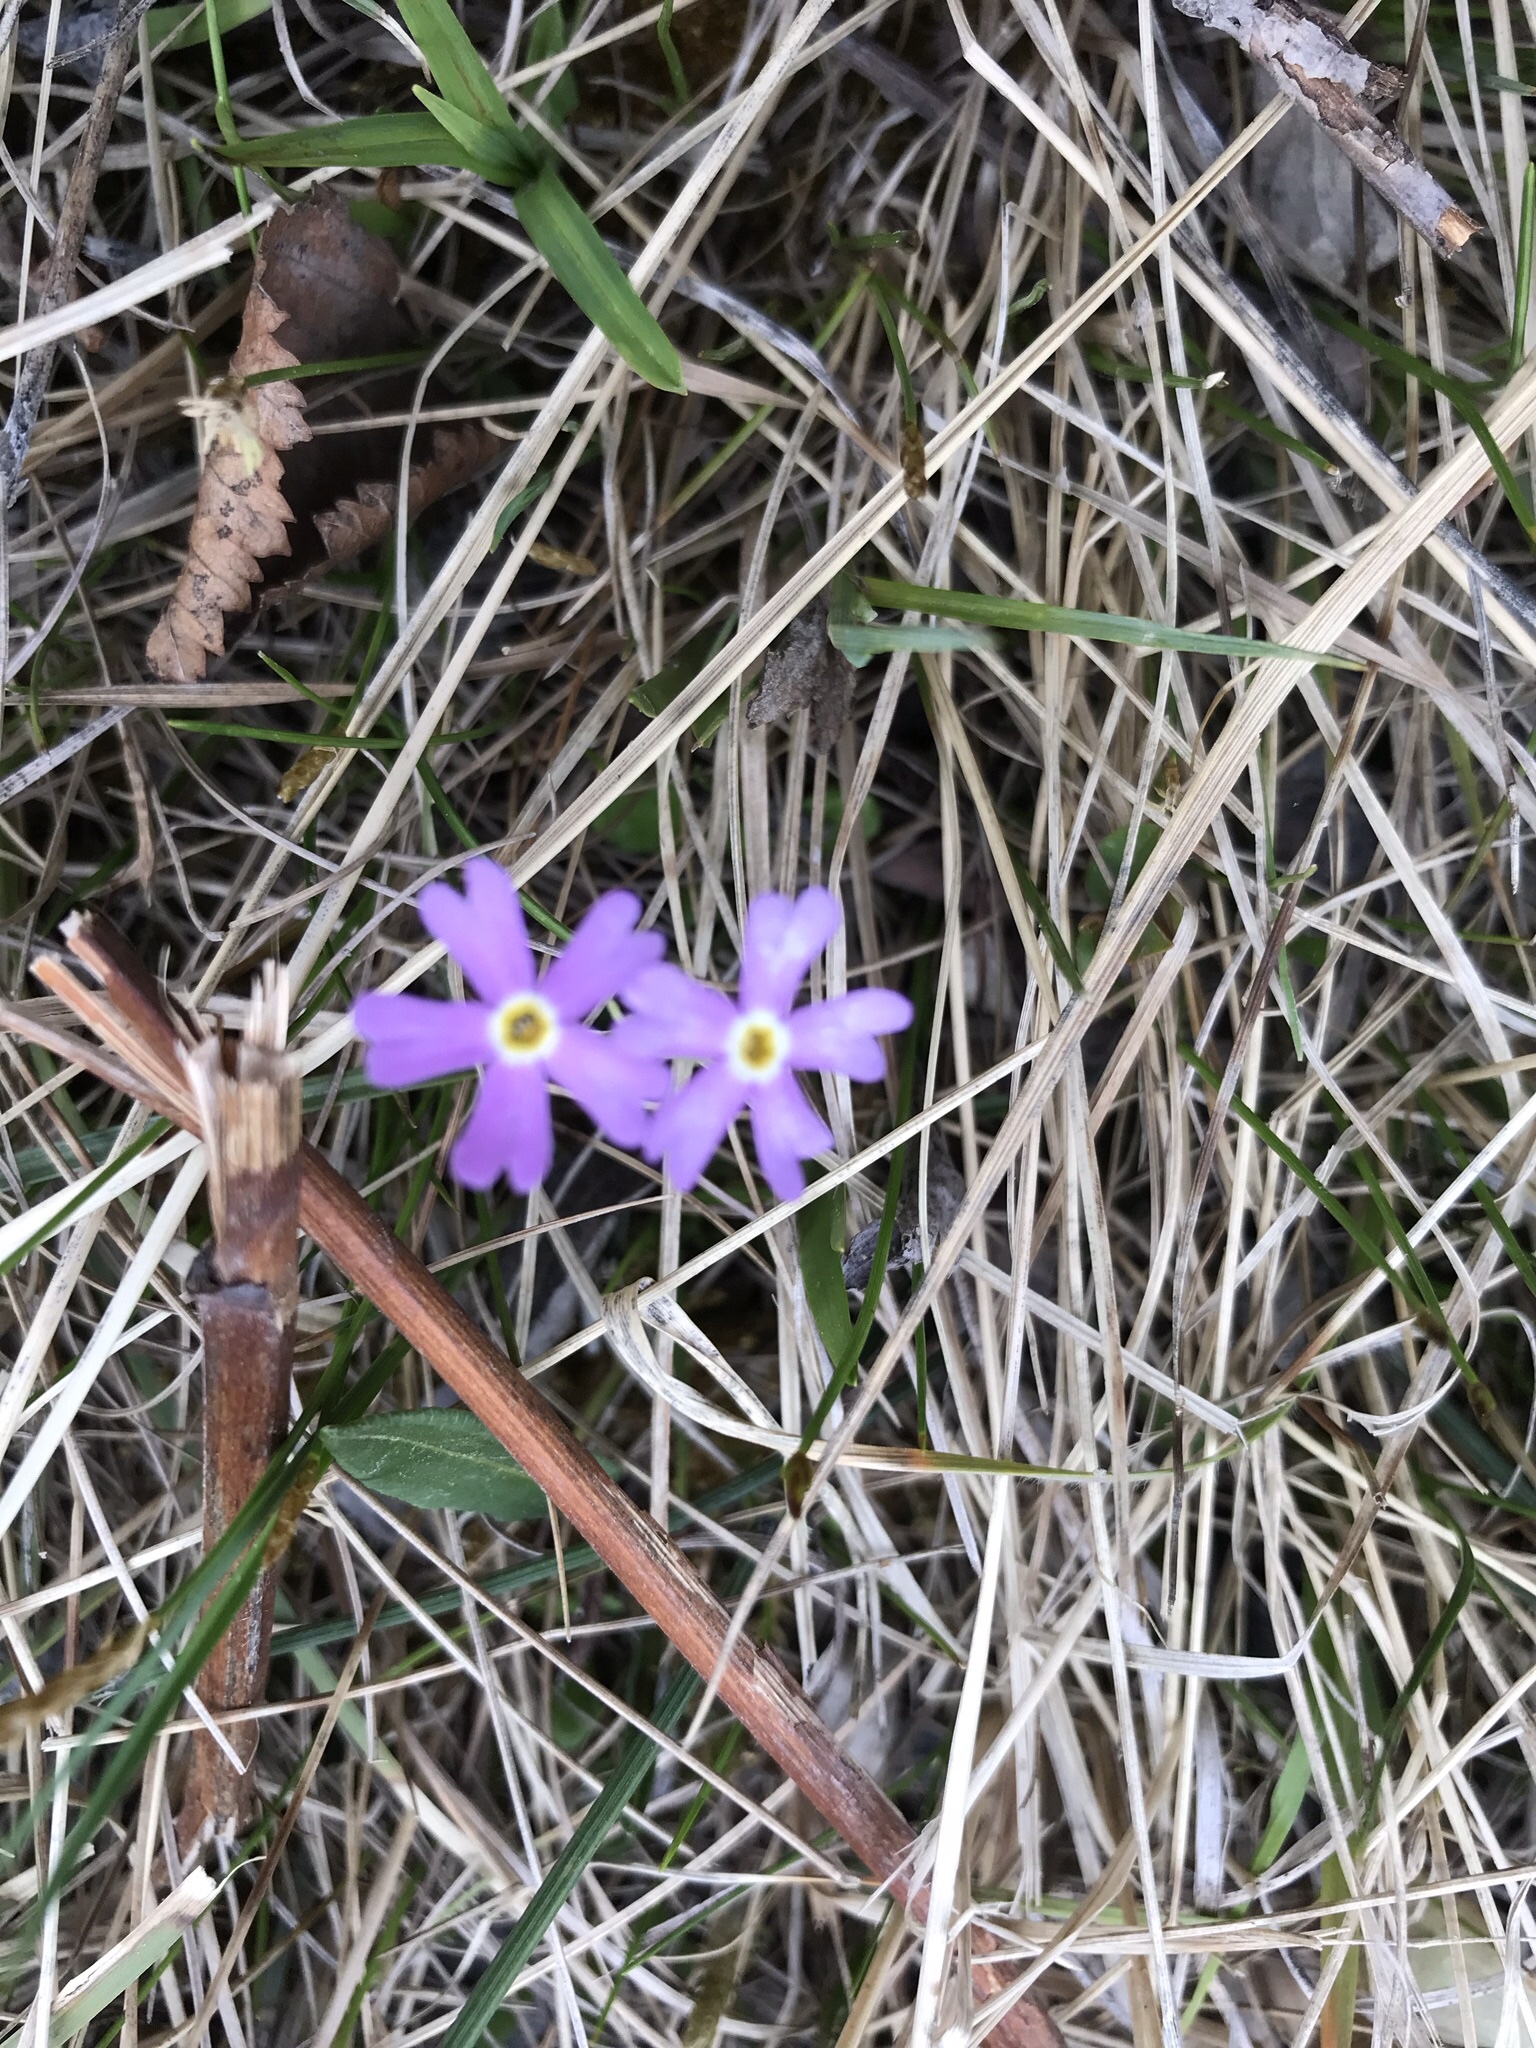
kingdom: Plantae
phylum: Tracheophyta
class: Magnoliopsida
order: Ericales
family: Primulaceae
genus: Primula
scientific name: Primula mistassinica
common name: Bird's-eye primrose
